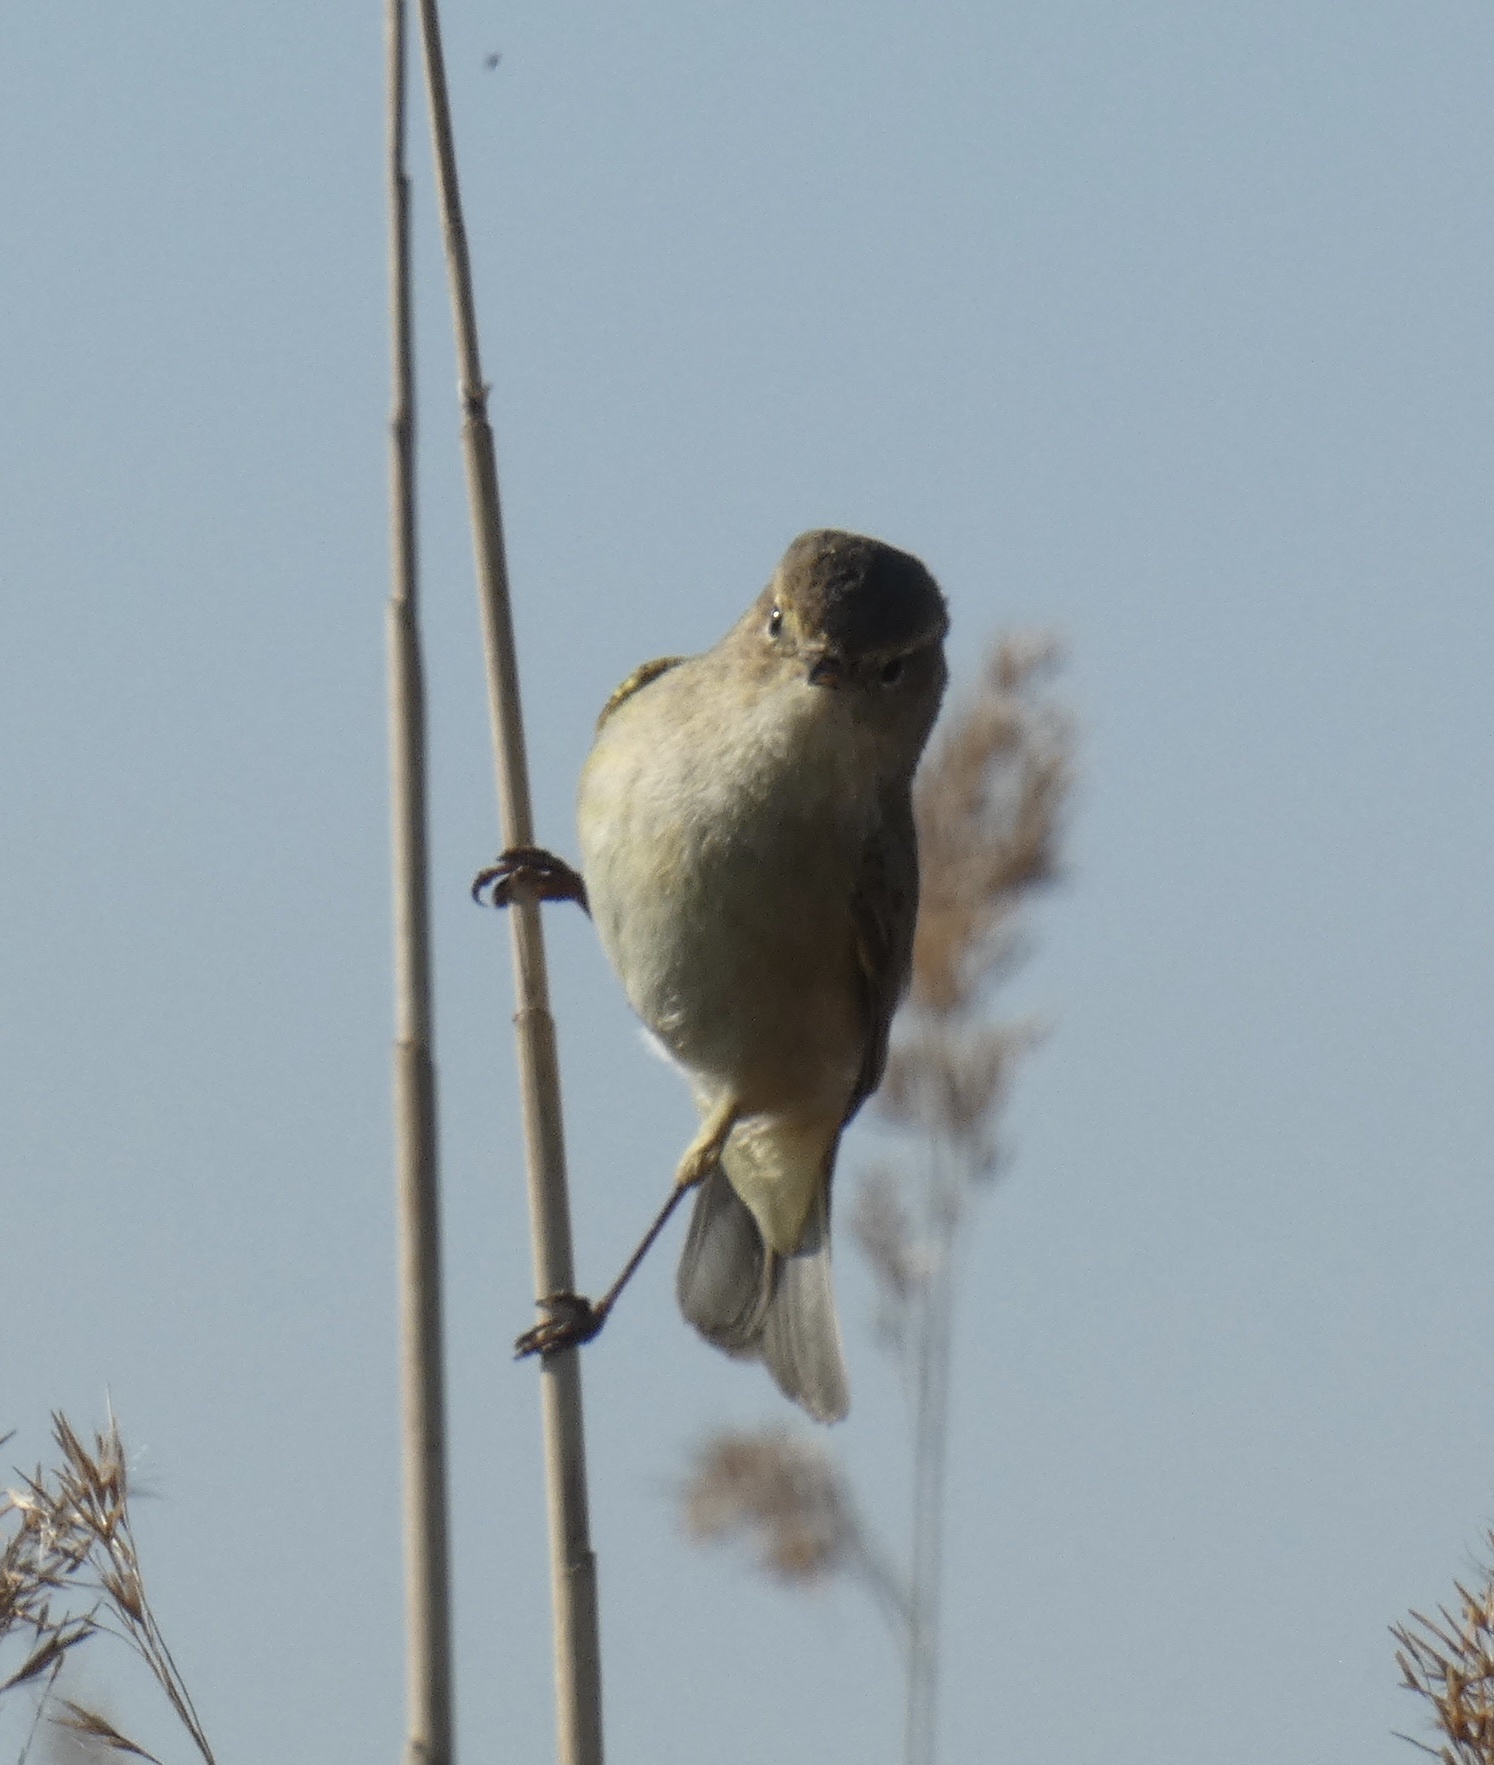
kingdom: Animalia
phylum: Chordata
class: Aves
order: Passeriformes
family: Phylloscopidae
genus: Phylloscopus
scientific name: Phylloscopus collybita
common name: Common chiffchaff
